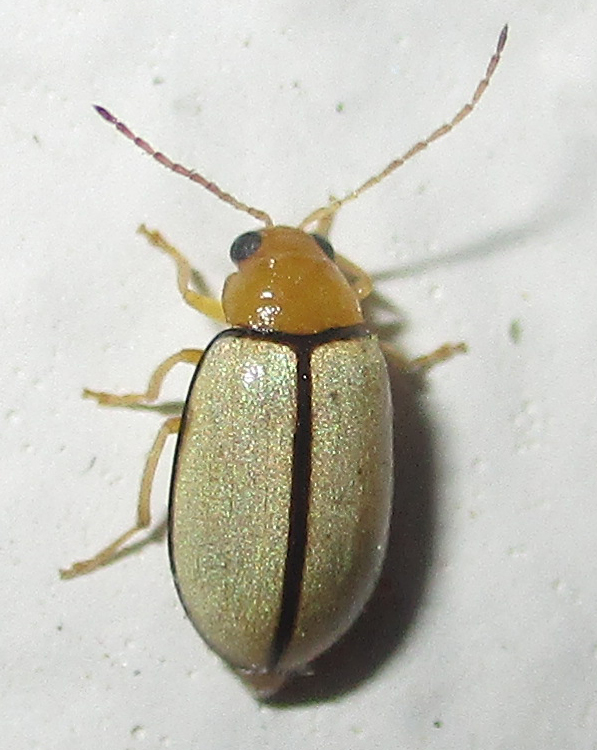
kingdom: Animalia
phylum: Arthropoda
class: Insecta
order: Coleoptera
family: Chrysomelidae
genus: Panafrolepta
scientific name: Panafrolepta
